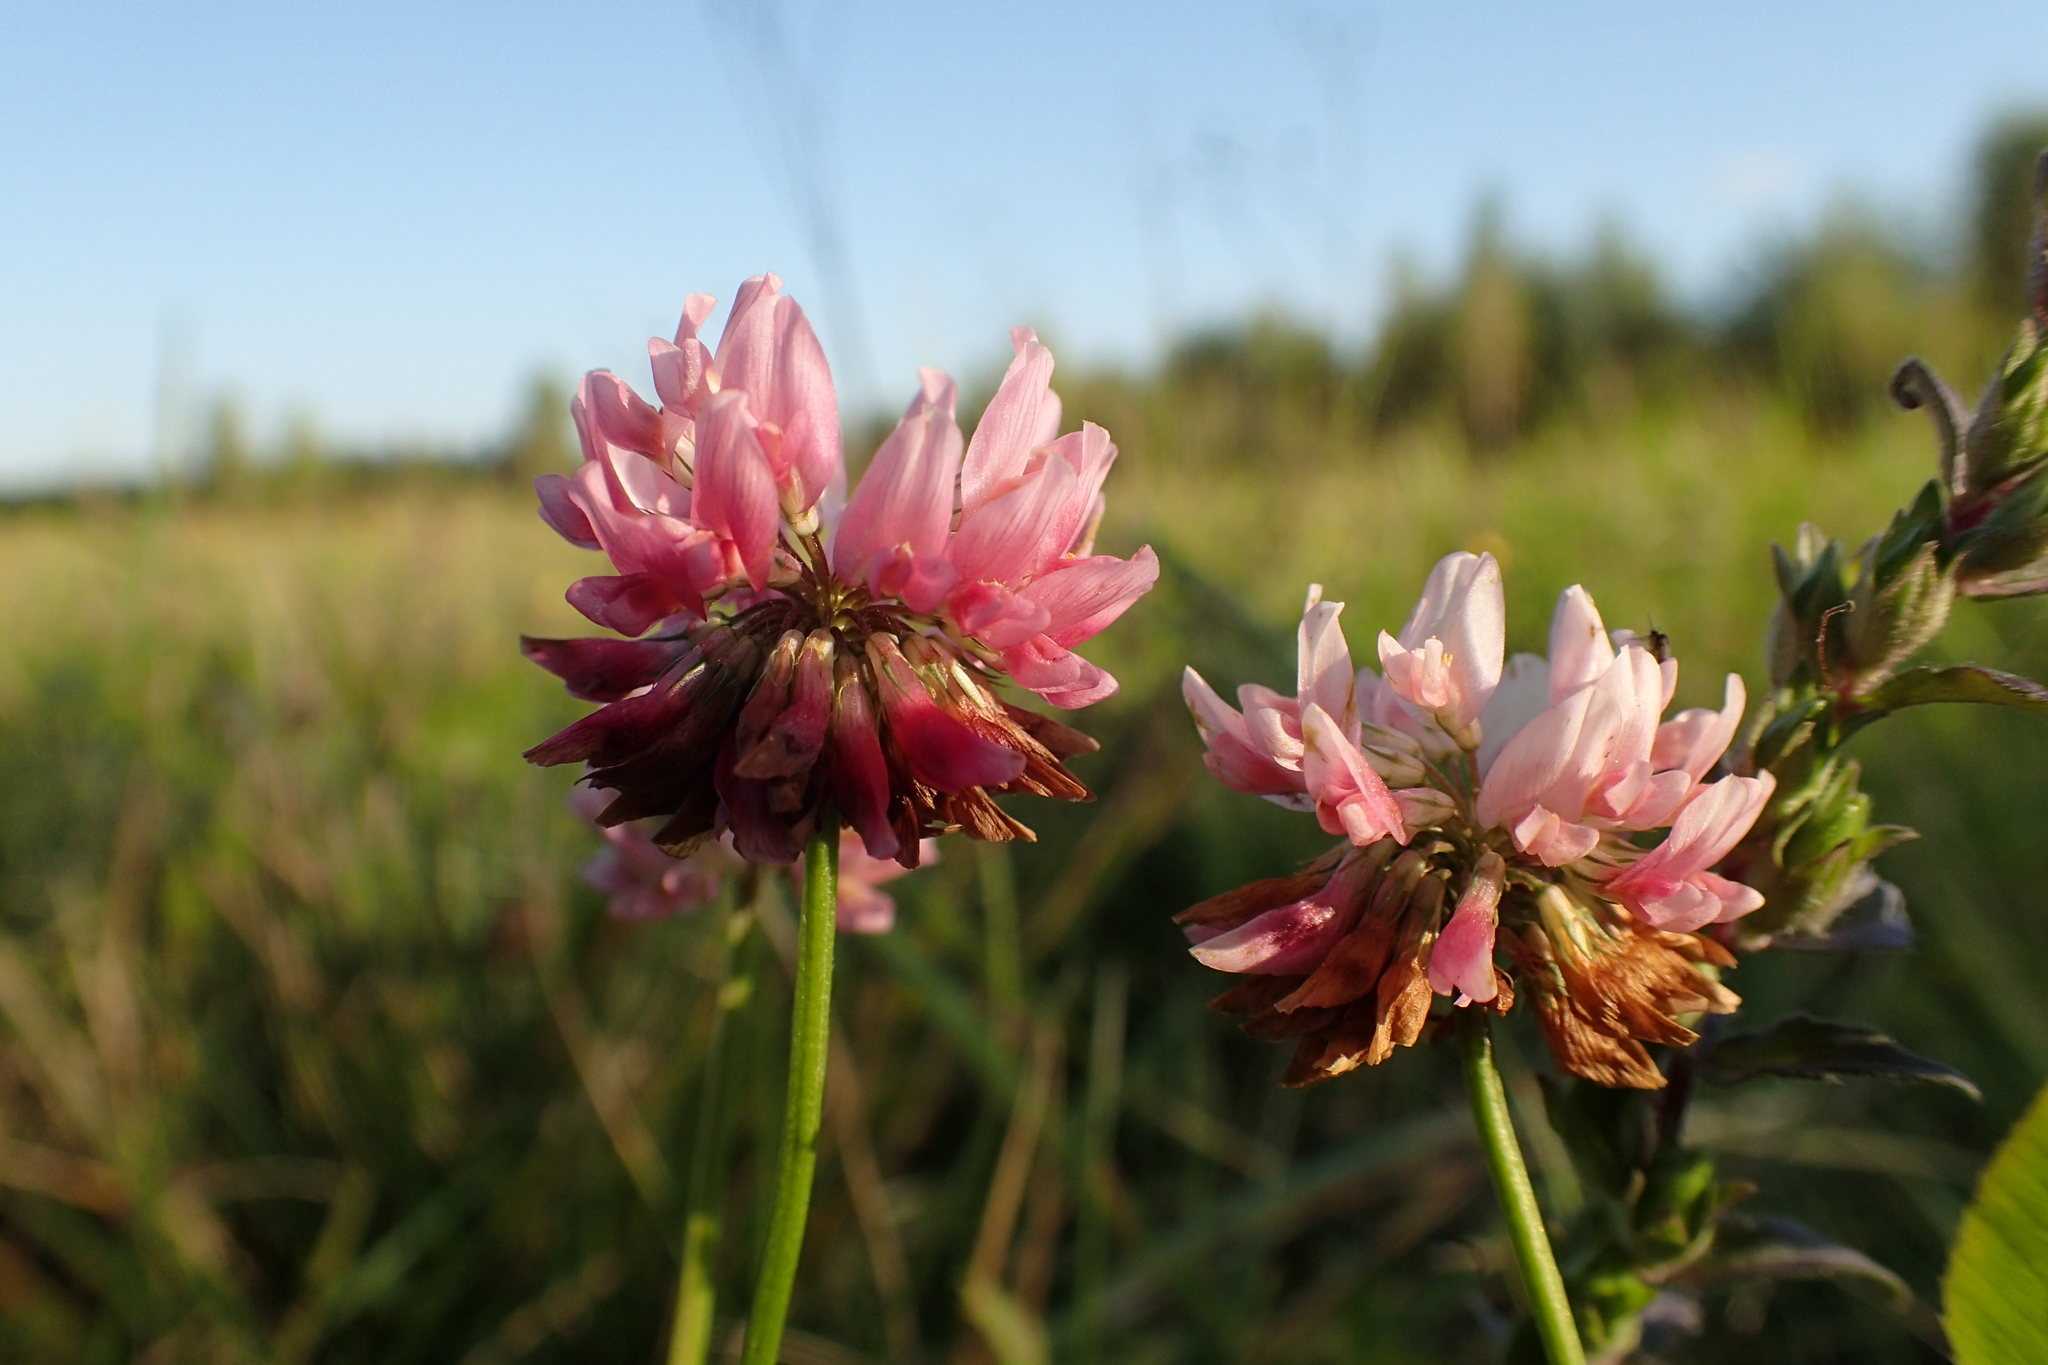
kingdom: Plantae
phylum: Tracheophyta
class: Magnoliopsida
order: Fabales
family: Fabaceae
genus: Trifolium
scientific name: Trifolium hybridum
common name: Alsike clover
